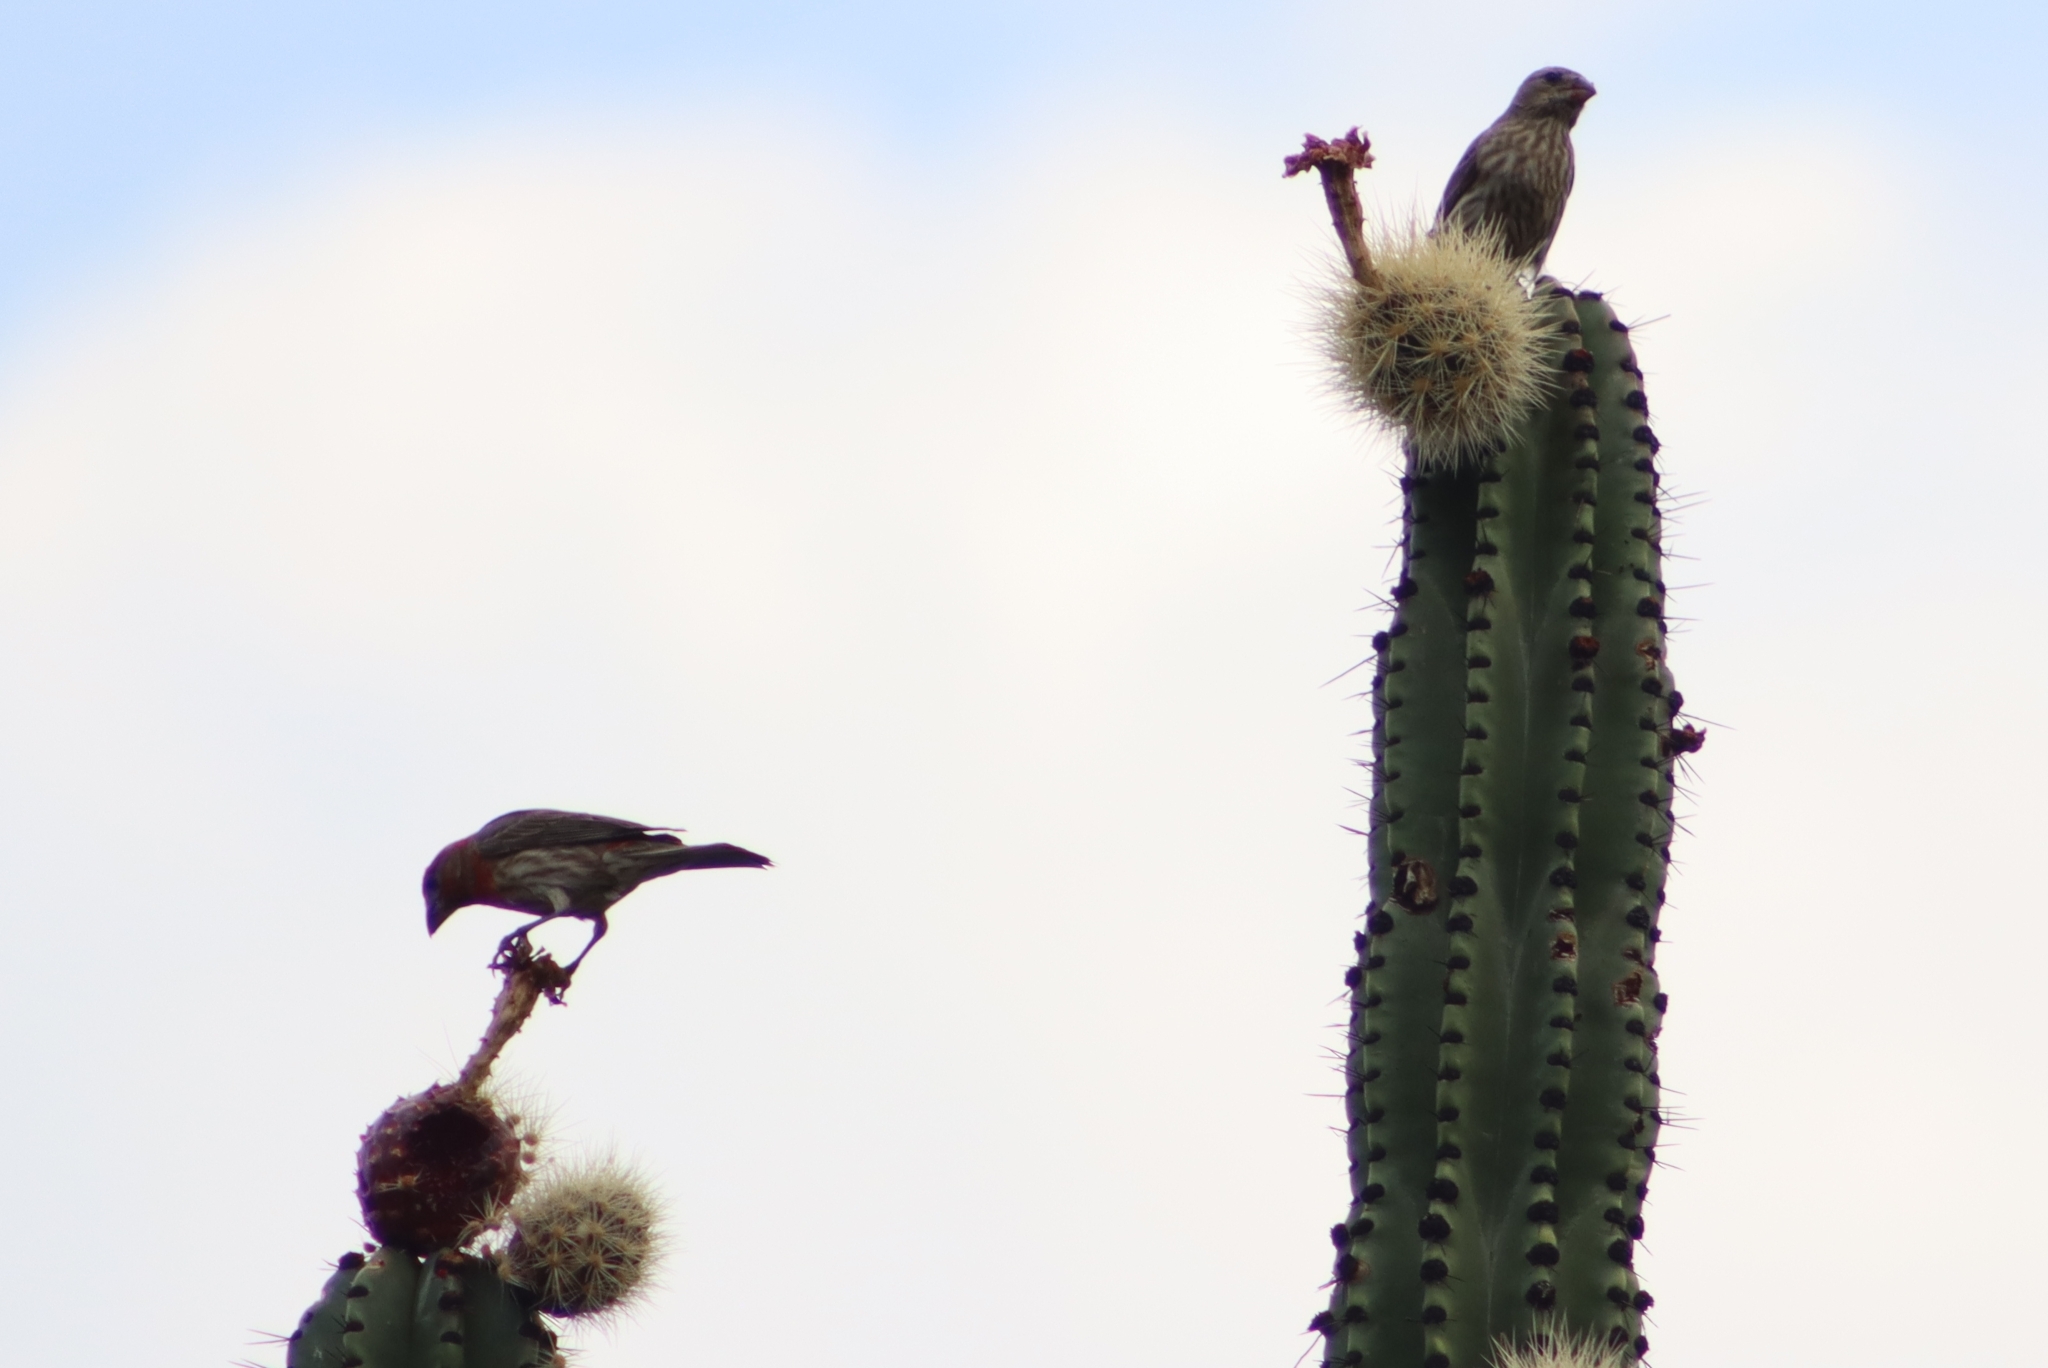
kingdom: Animalia
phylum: Chordata
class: Aves
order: Passeriformes
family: Fringillidae
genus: Haemorhous
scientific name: Haemorhous mexicanus
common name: House finch
